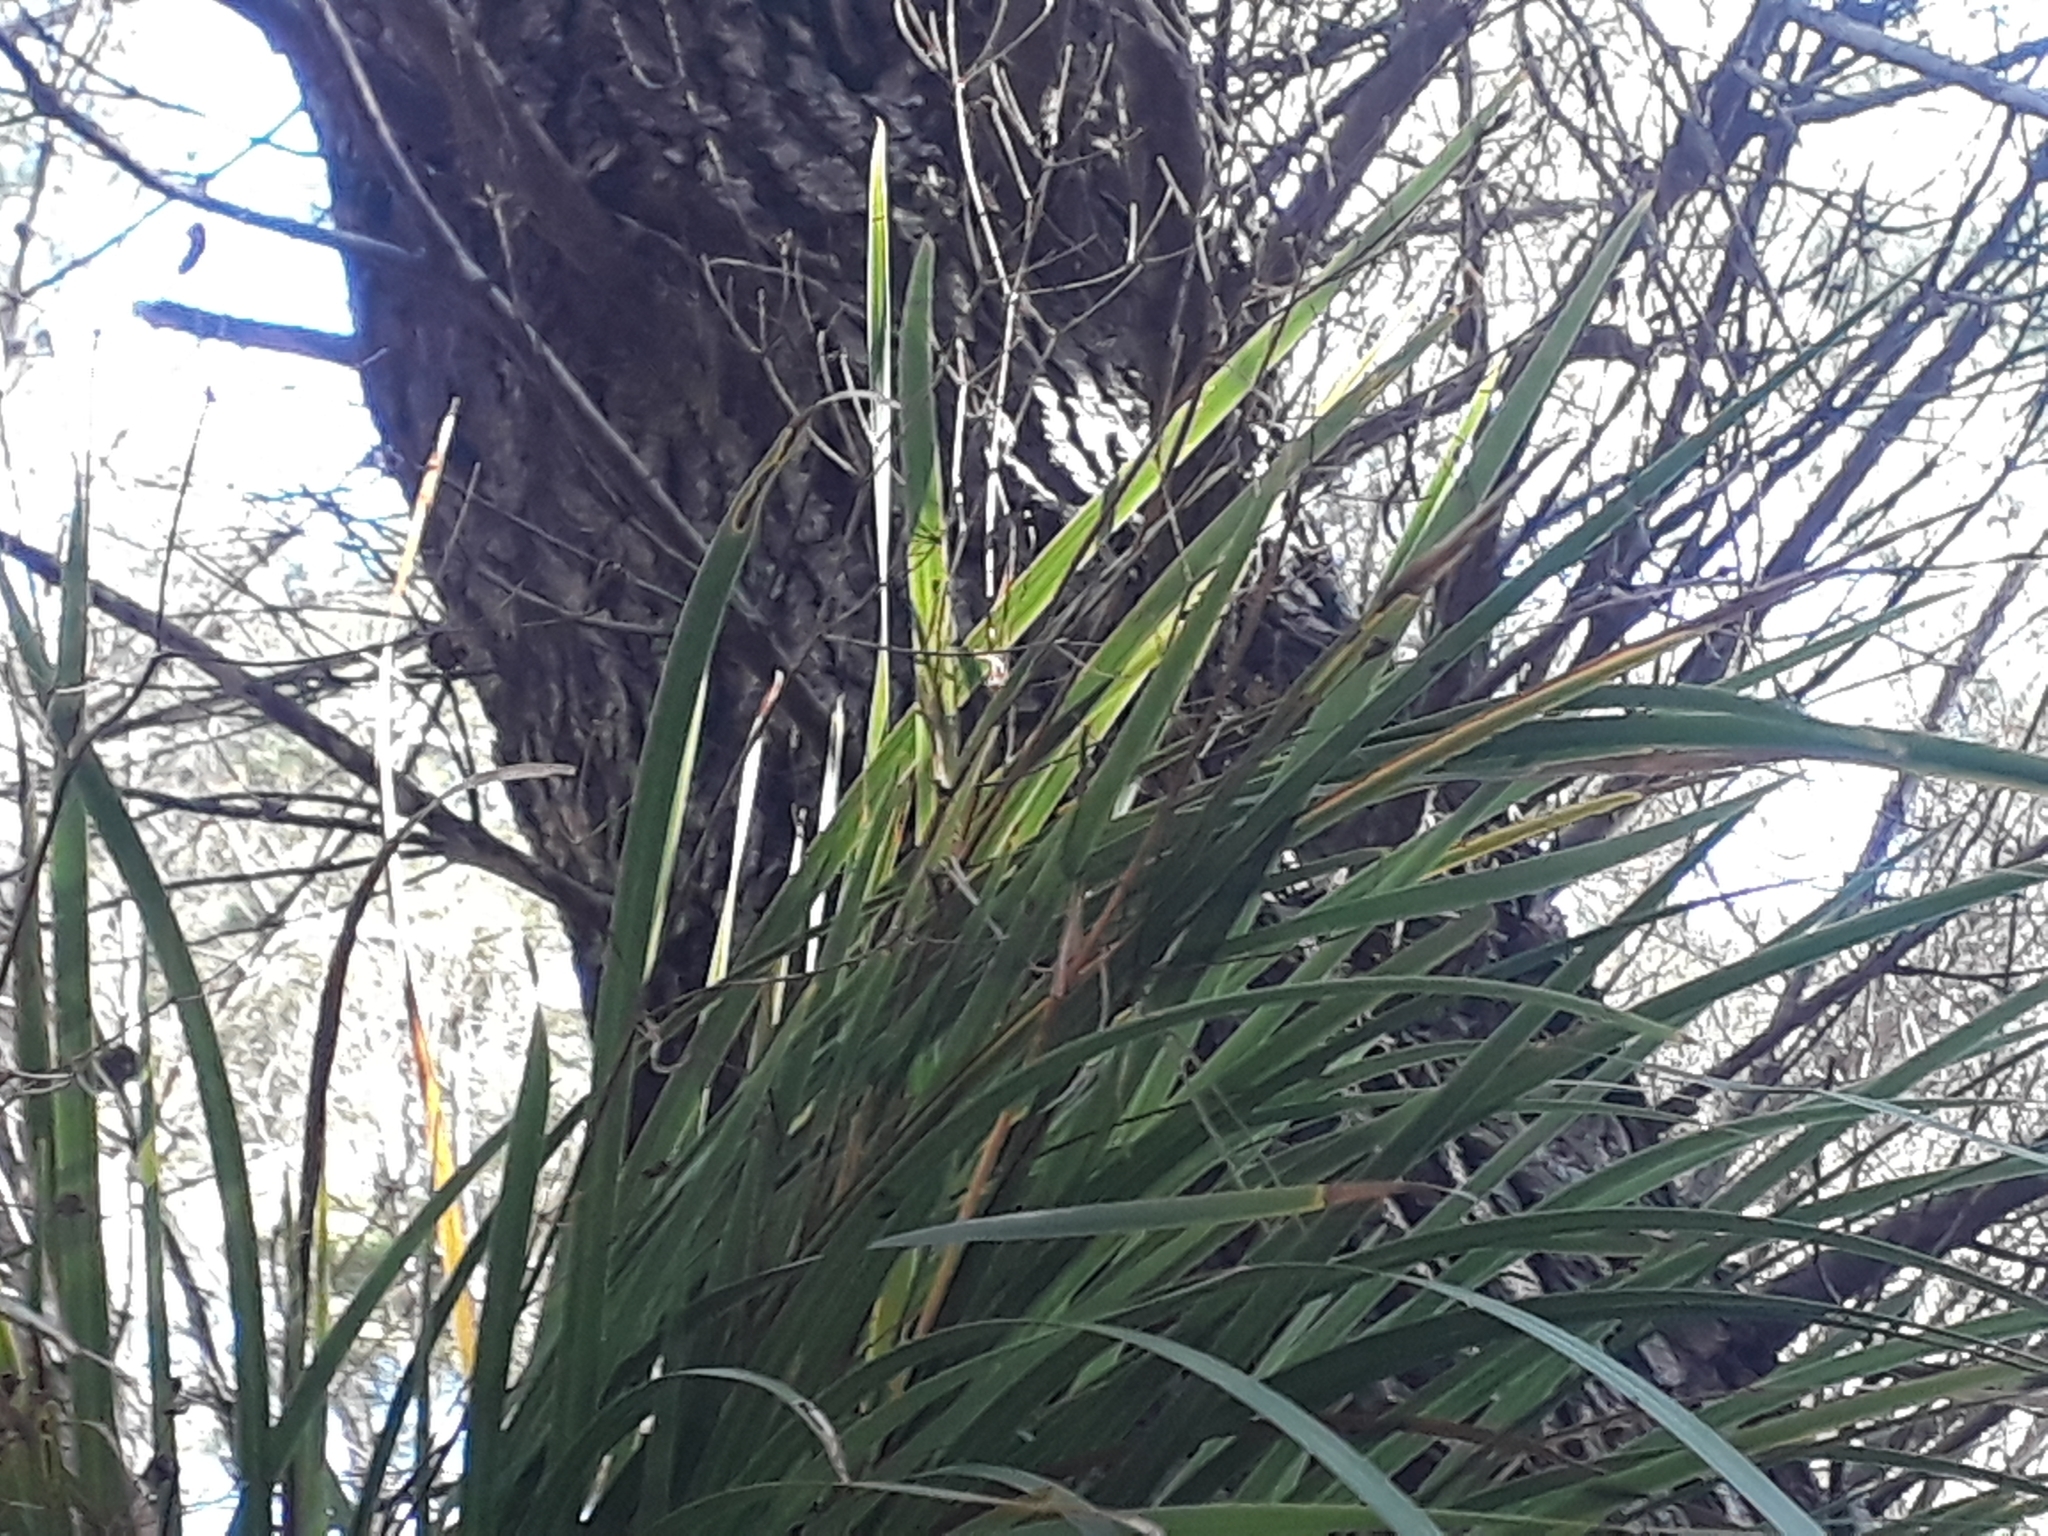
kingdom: Plantae
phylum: Tracheophyta
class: Liliopsida
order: Asparagales
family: Iridaceae
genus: Libertia
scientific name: Libertia grandiflora
